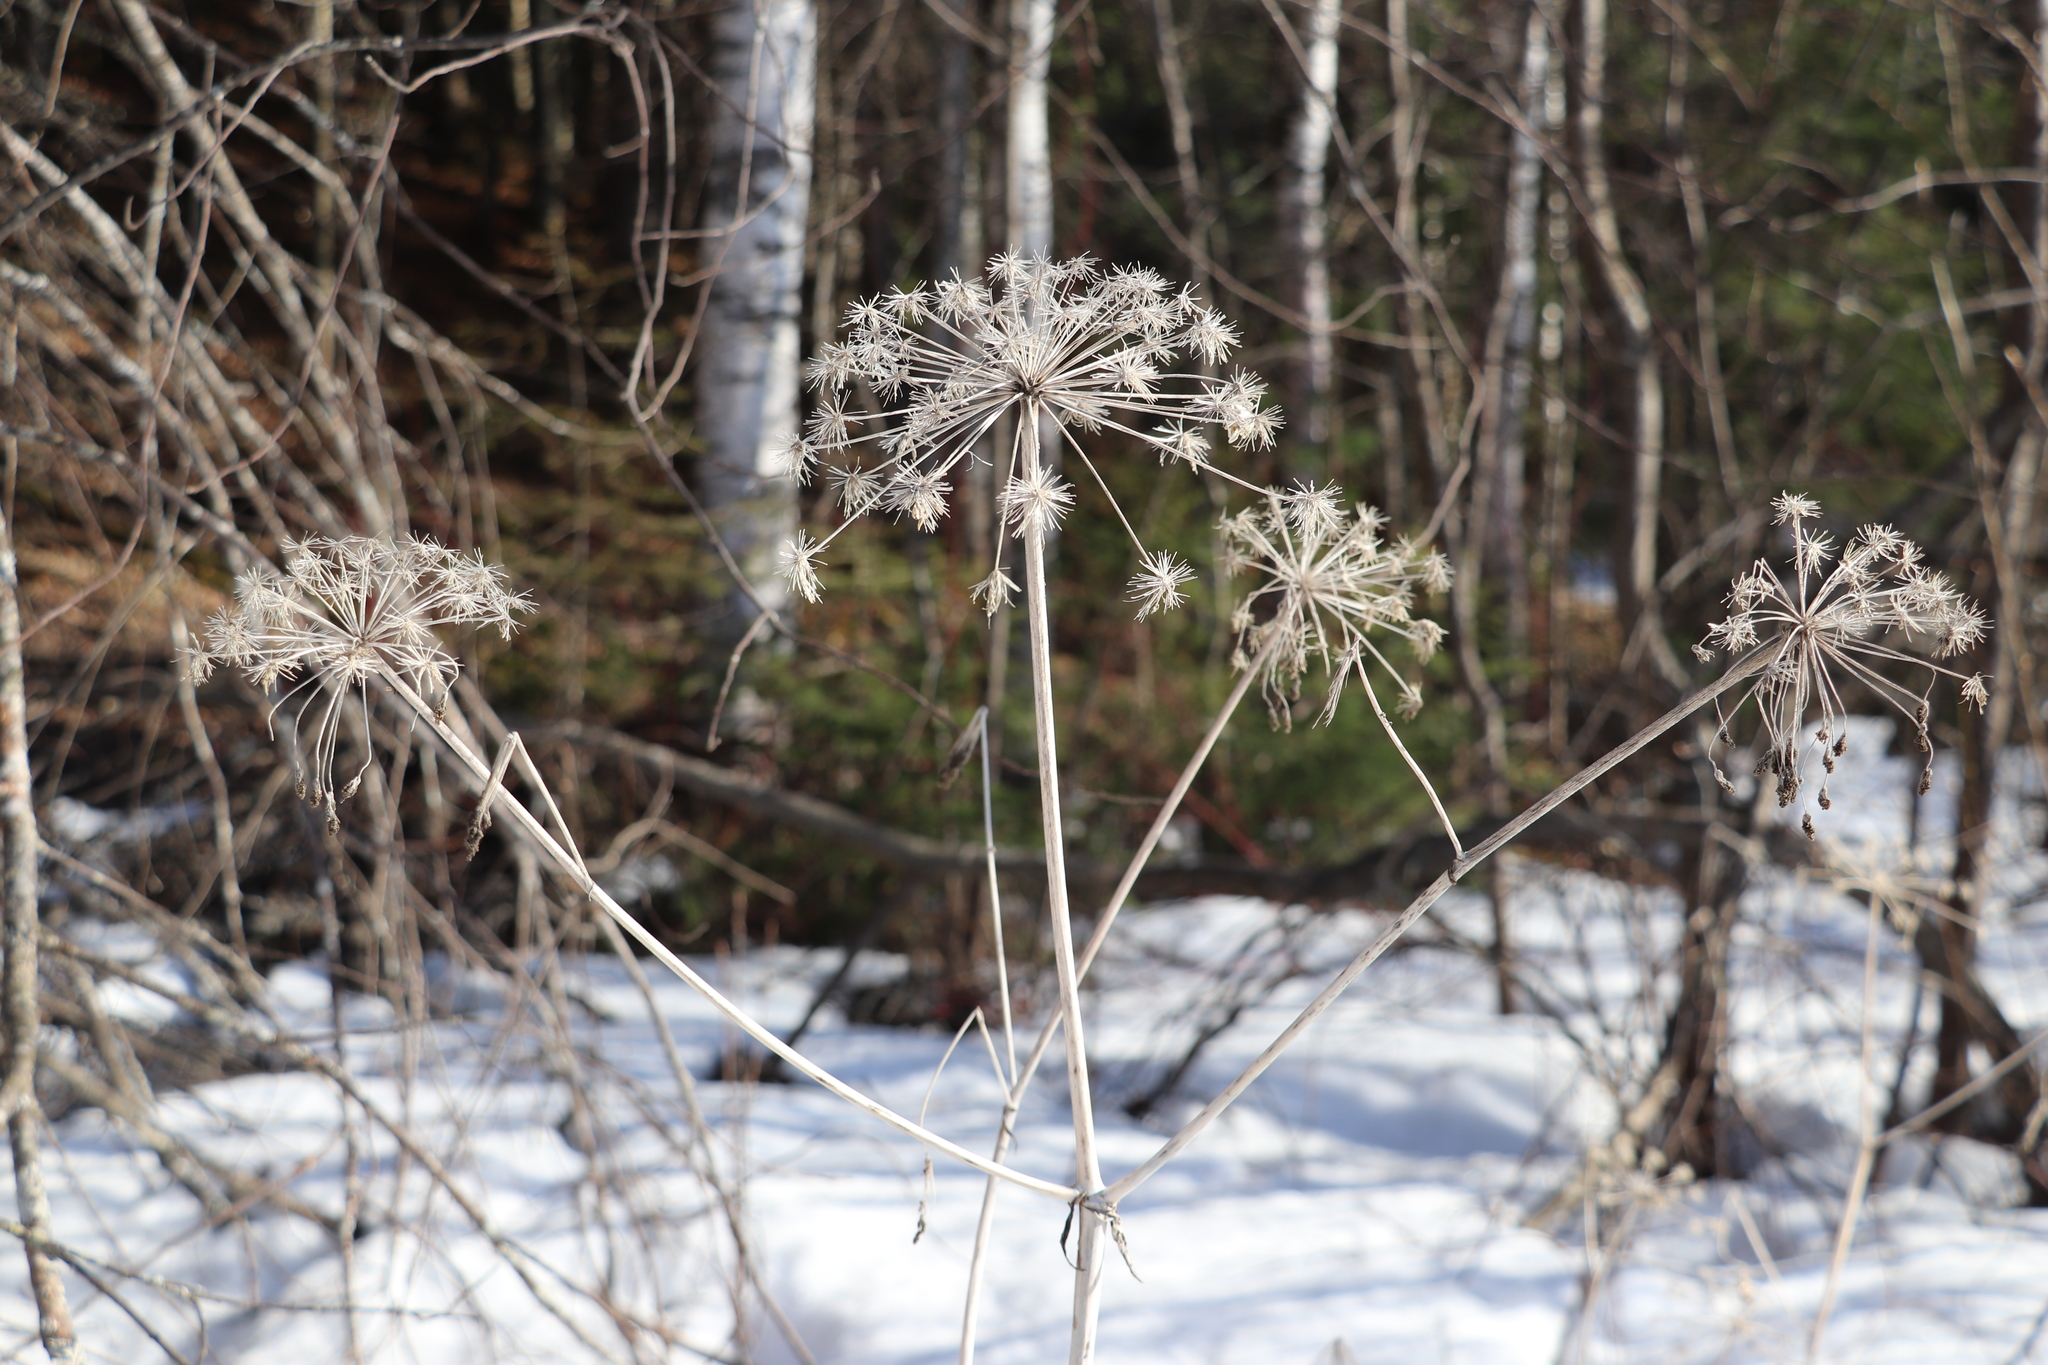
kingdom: Plantae
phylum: Tracheophyta
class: Magnoliopsida
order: Apiales
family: Apiaceae
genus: Angelica
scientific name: Angelica sylvestris
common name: Wild angelica
